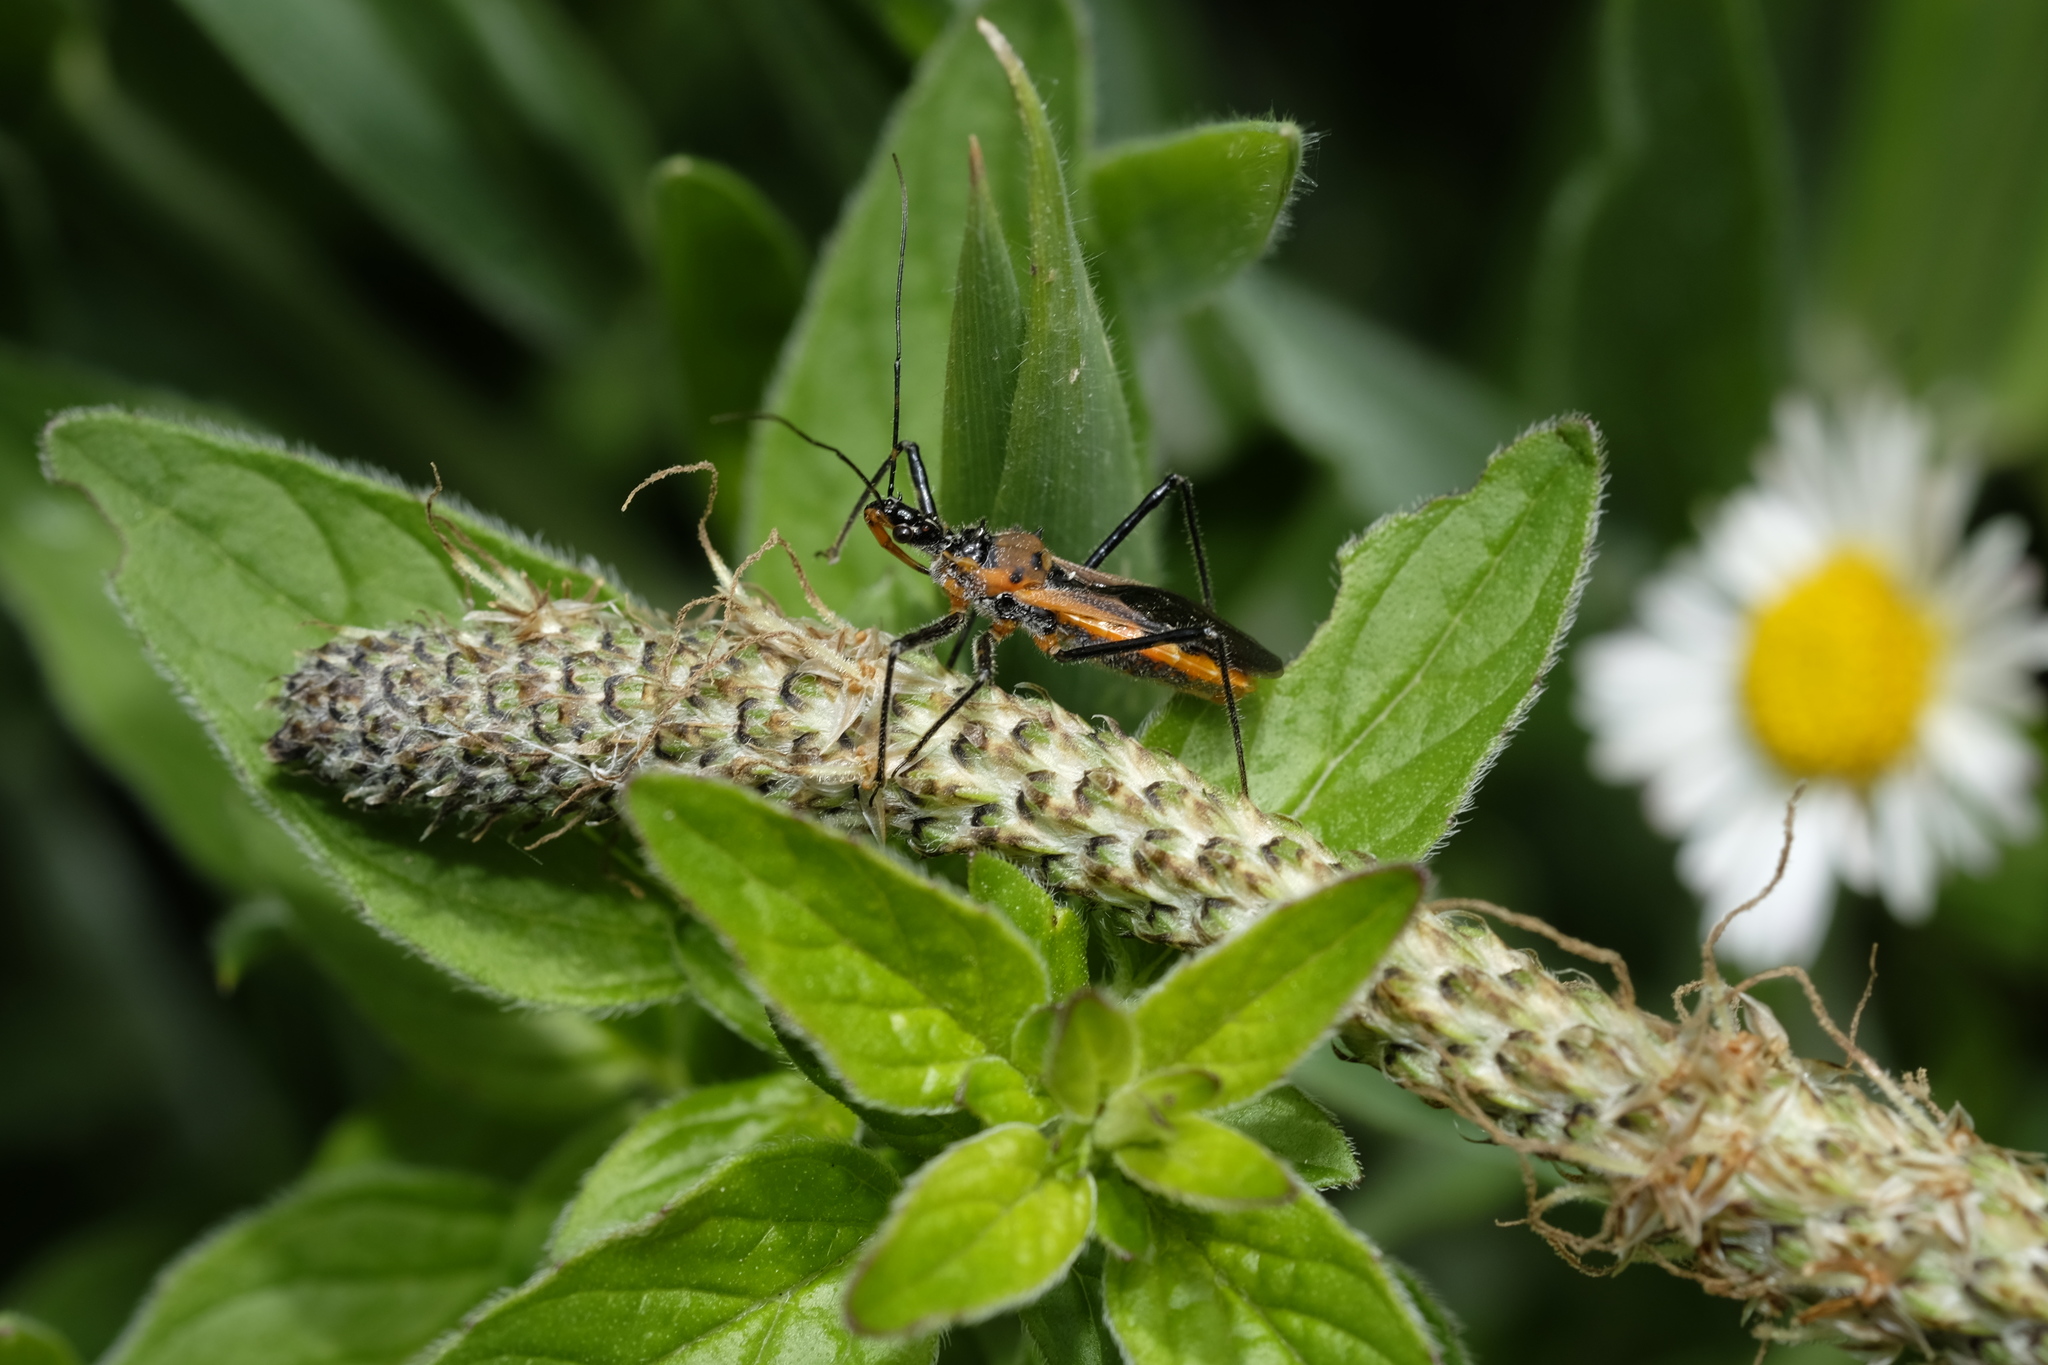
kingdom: Animalia
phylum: Arthropoda
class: Insecta
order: Hemiptera
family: Reduviidae
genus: Gminatus
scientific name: Gminatus australis
